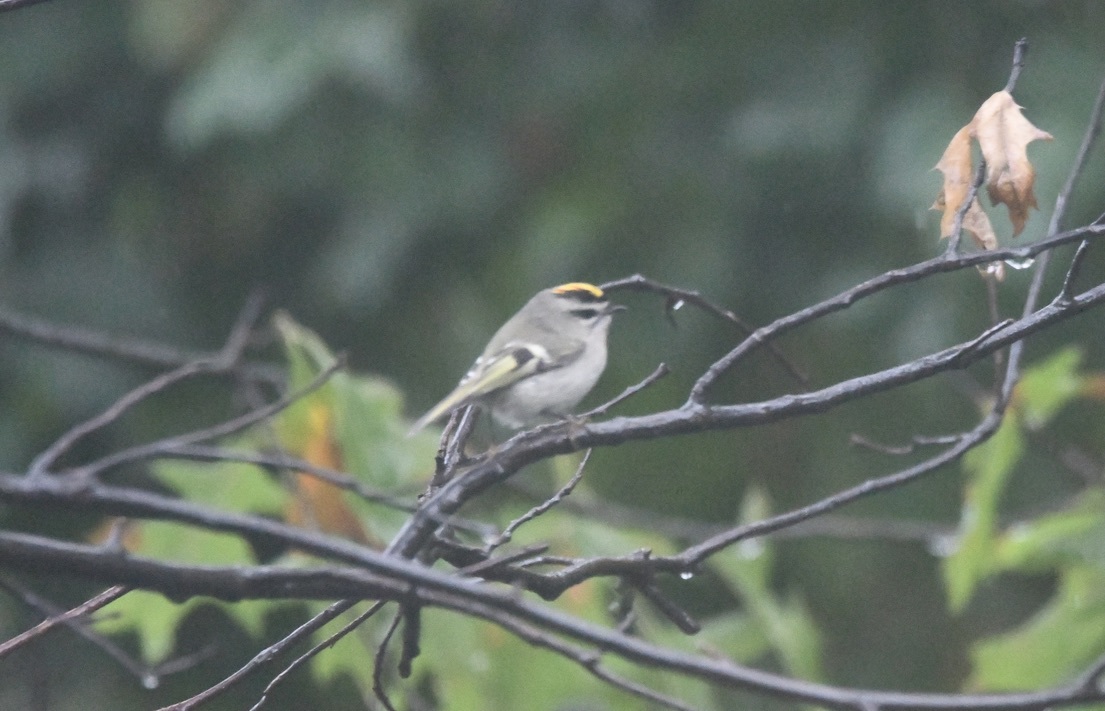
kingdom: Animalia
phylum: Chordata
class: Aves
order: Passeriformes
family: Regulidae
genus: Regulus
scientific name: Regulus satrapa
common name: Golden-crowned kinglet
